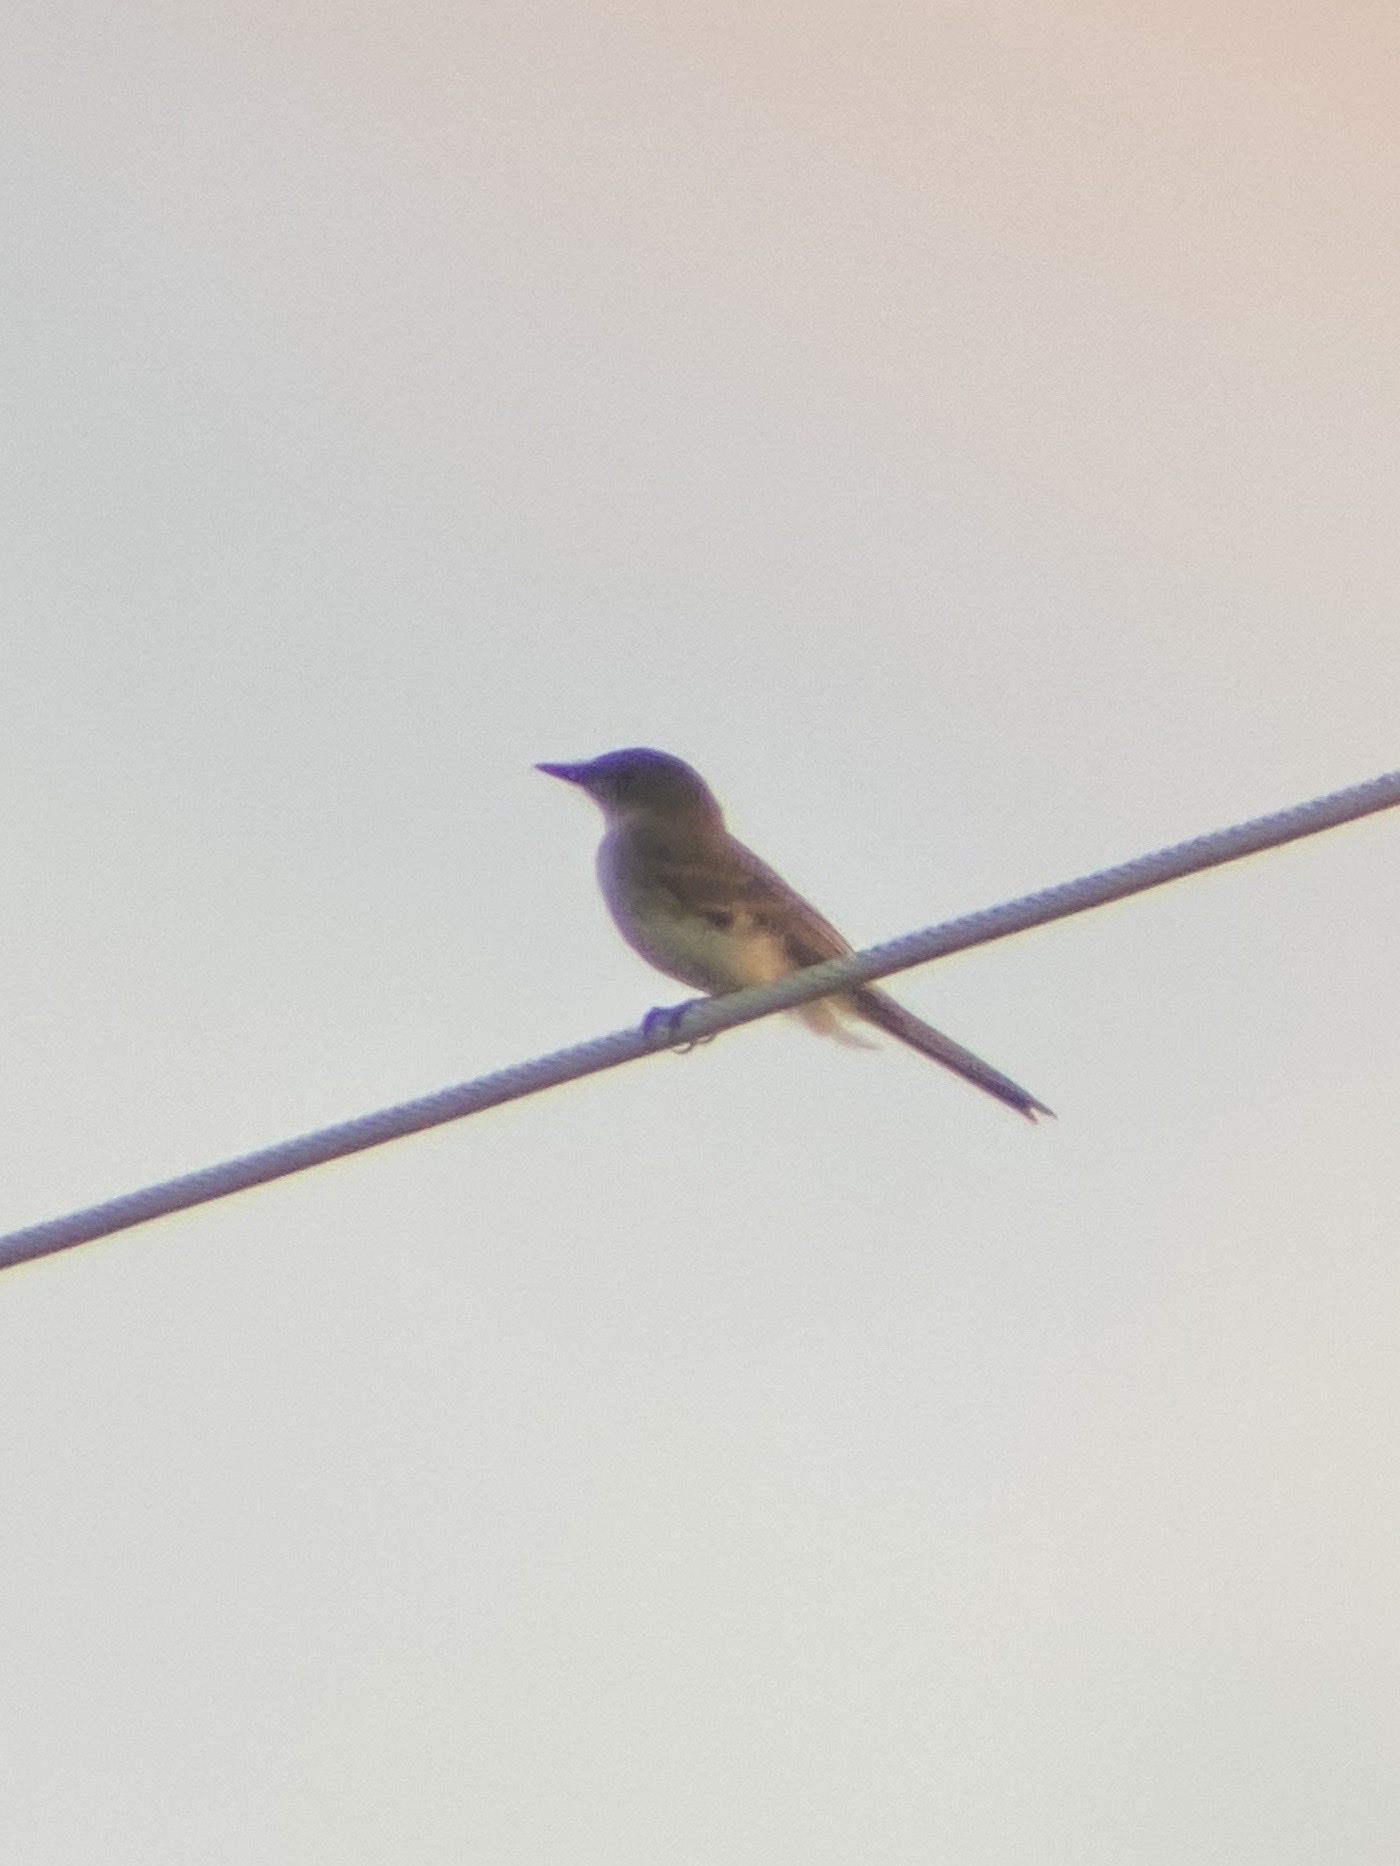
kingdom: Animalia
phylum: Chordata
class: Aves
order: Passeriformes
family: Tyrannidae
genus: Sayornis
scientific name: Sayornis phoebe
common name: Eastern phoebe
